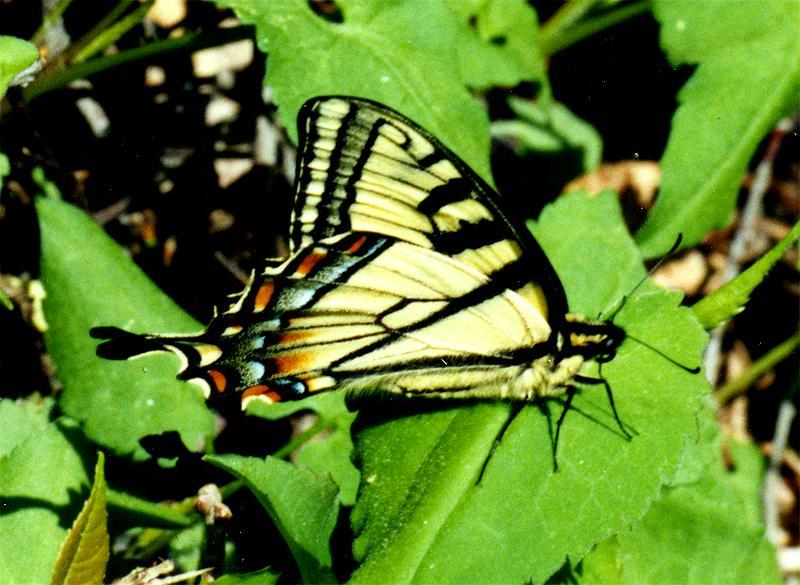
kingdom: Animalia
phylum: Arthropoda
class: Insecta
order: Lepidoptera
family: Papilionidae
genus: Papilio
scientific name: Papilio
